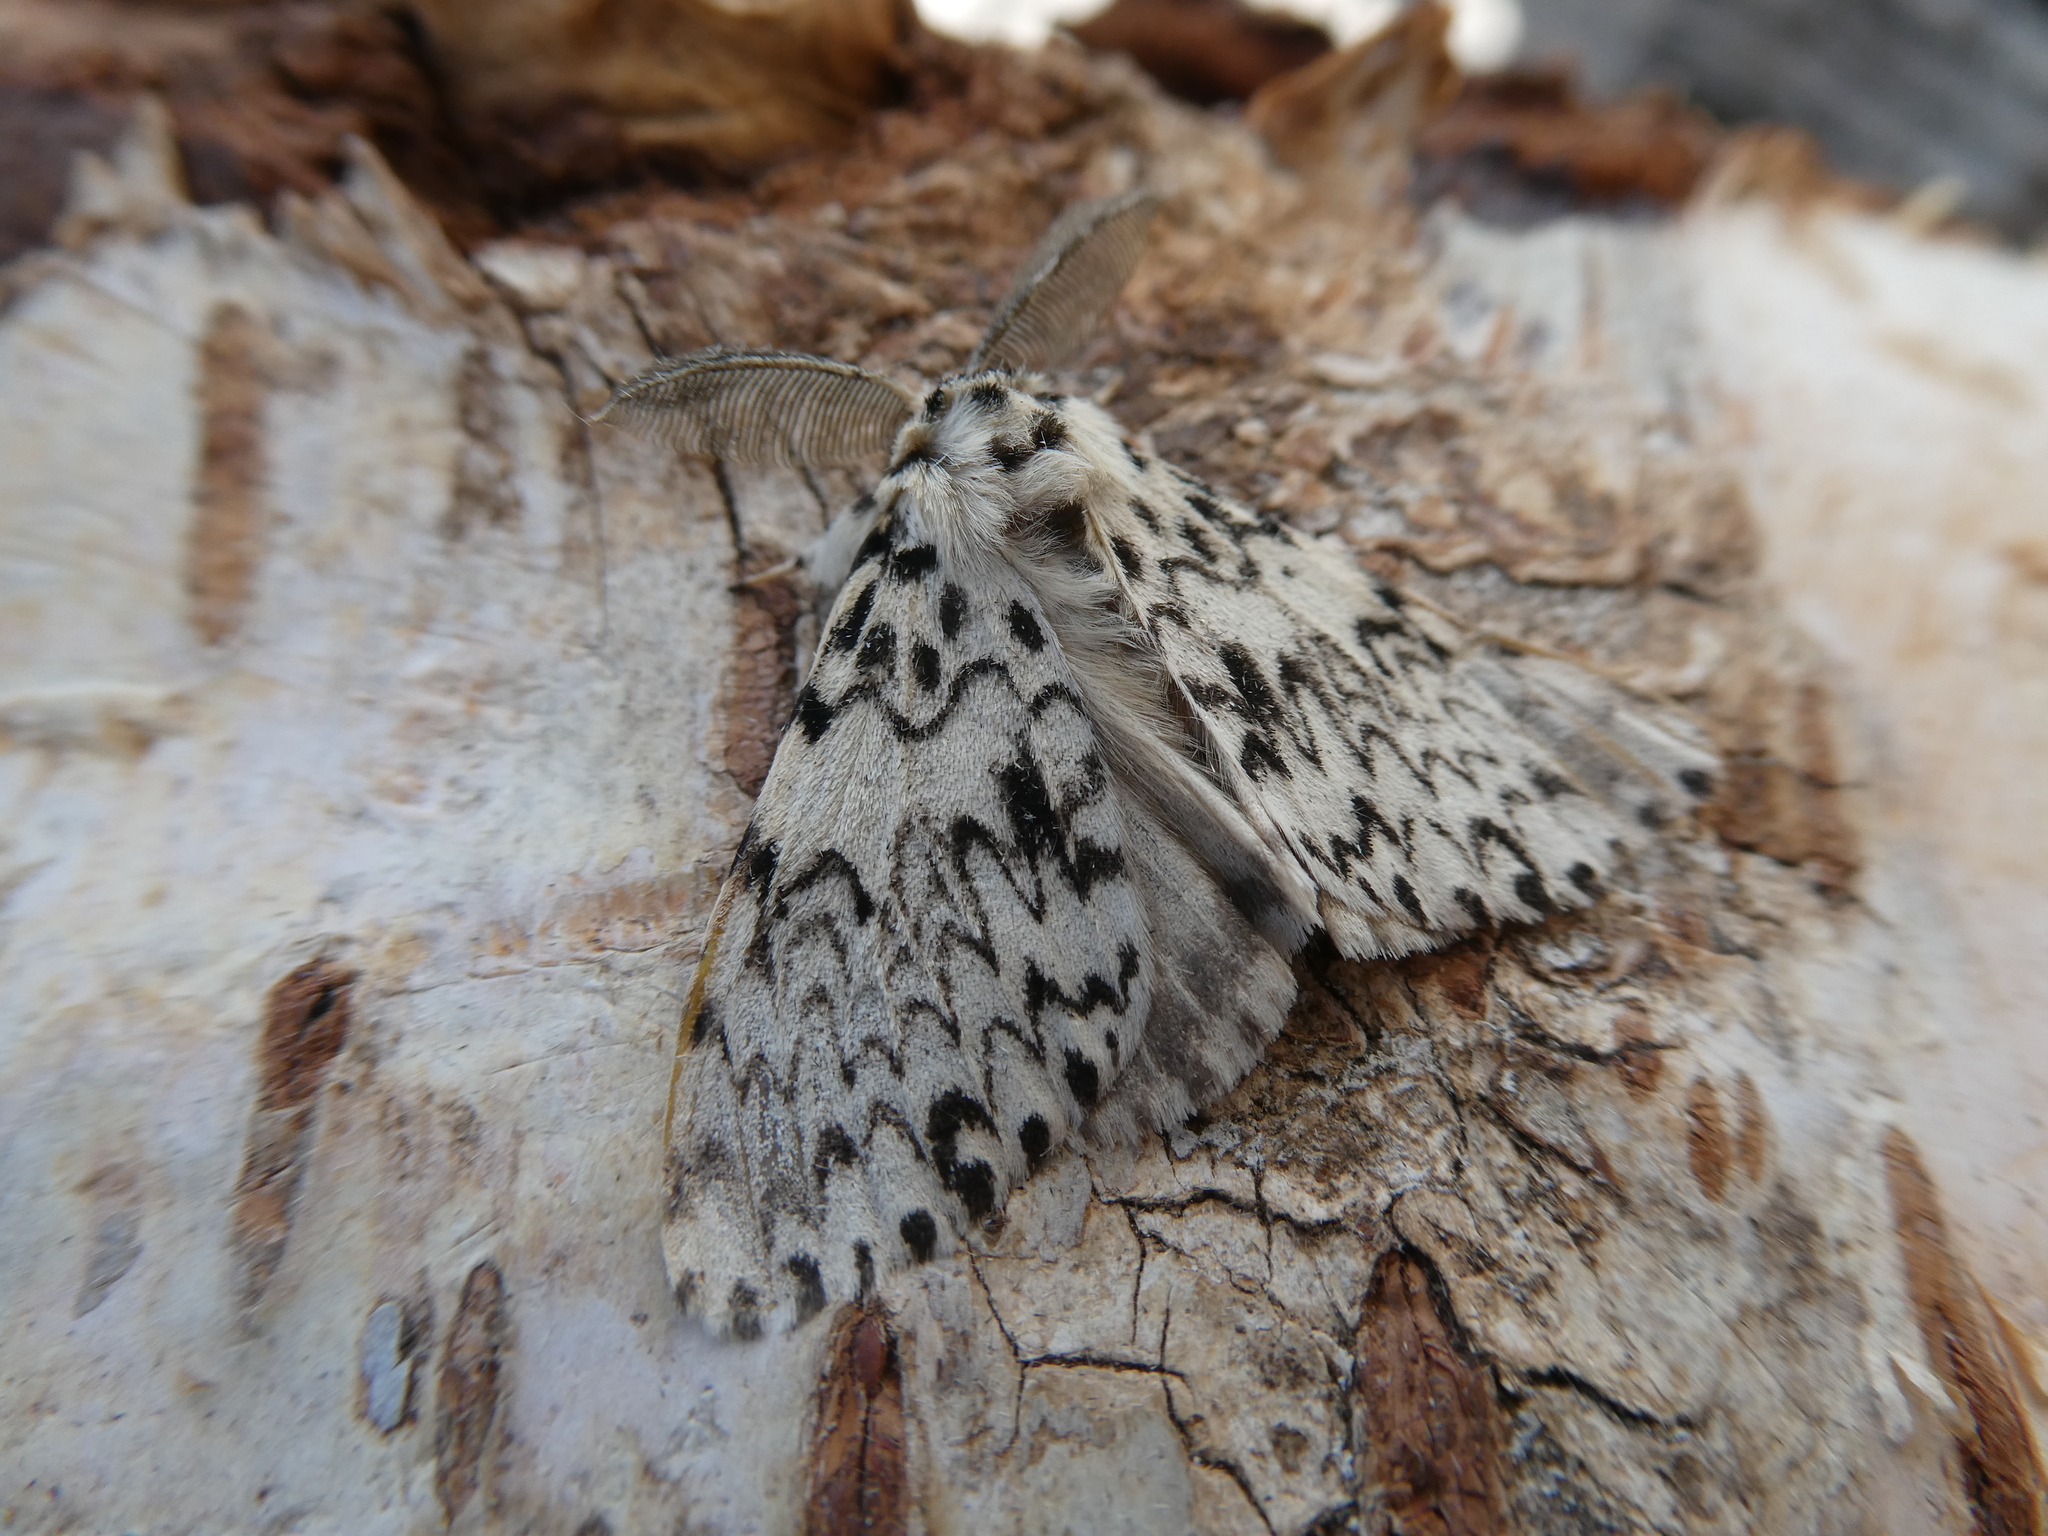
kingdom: Animalia
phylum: Arthropoda
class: Insecta
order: Lepidoptera
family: Erebidae
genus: Lymantria
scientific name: Lymantria monacha
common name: Black arches
